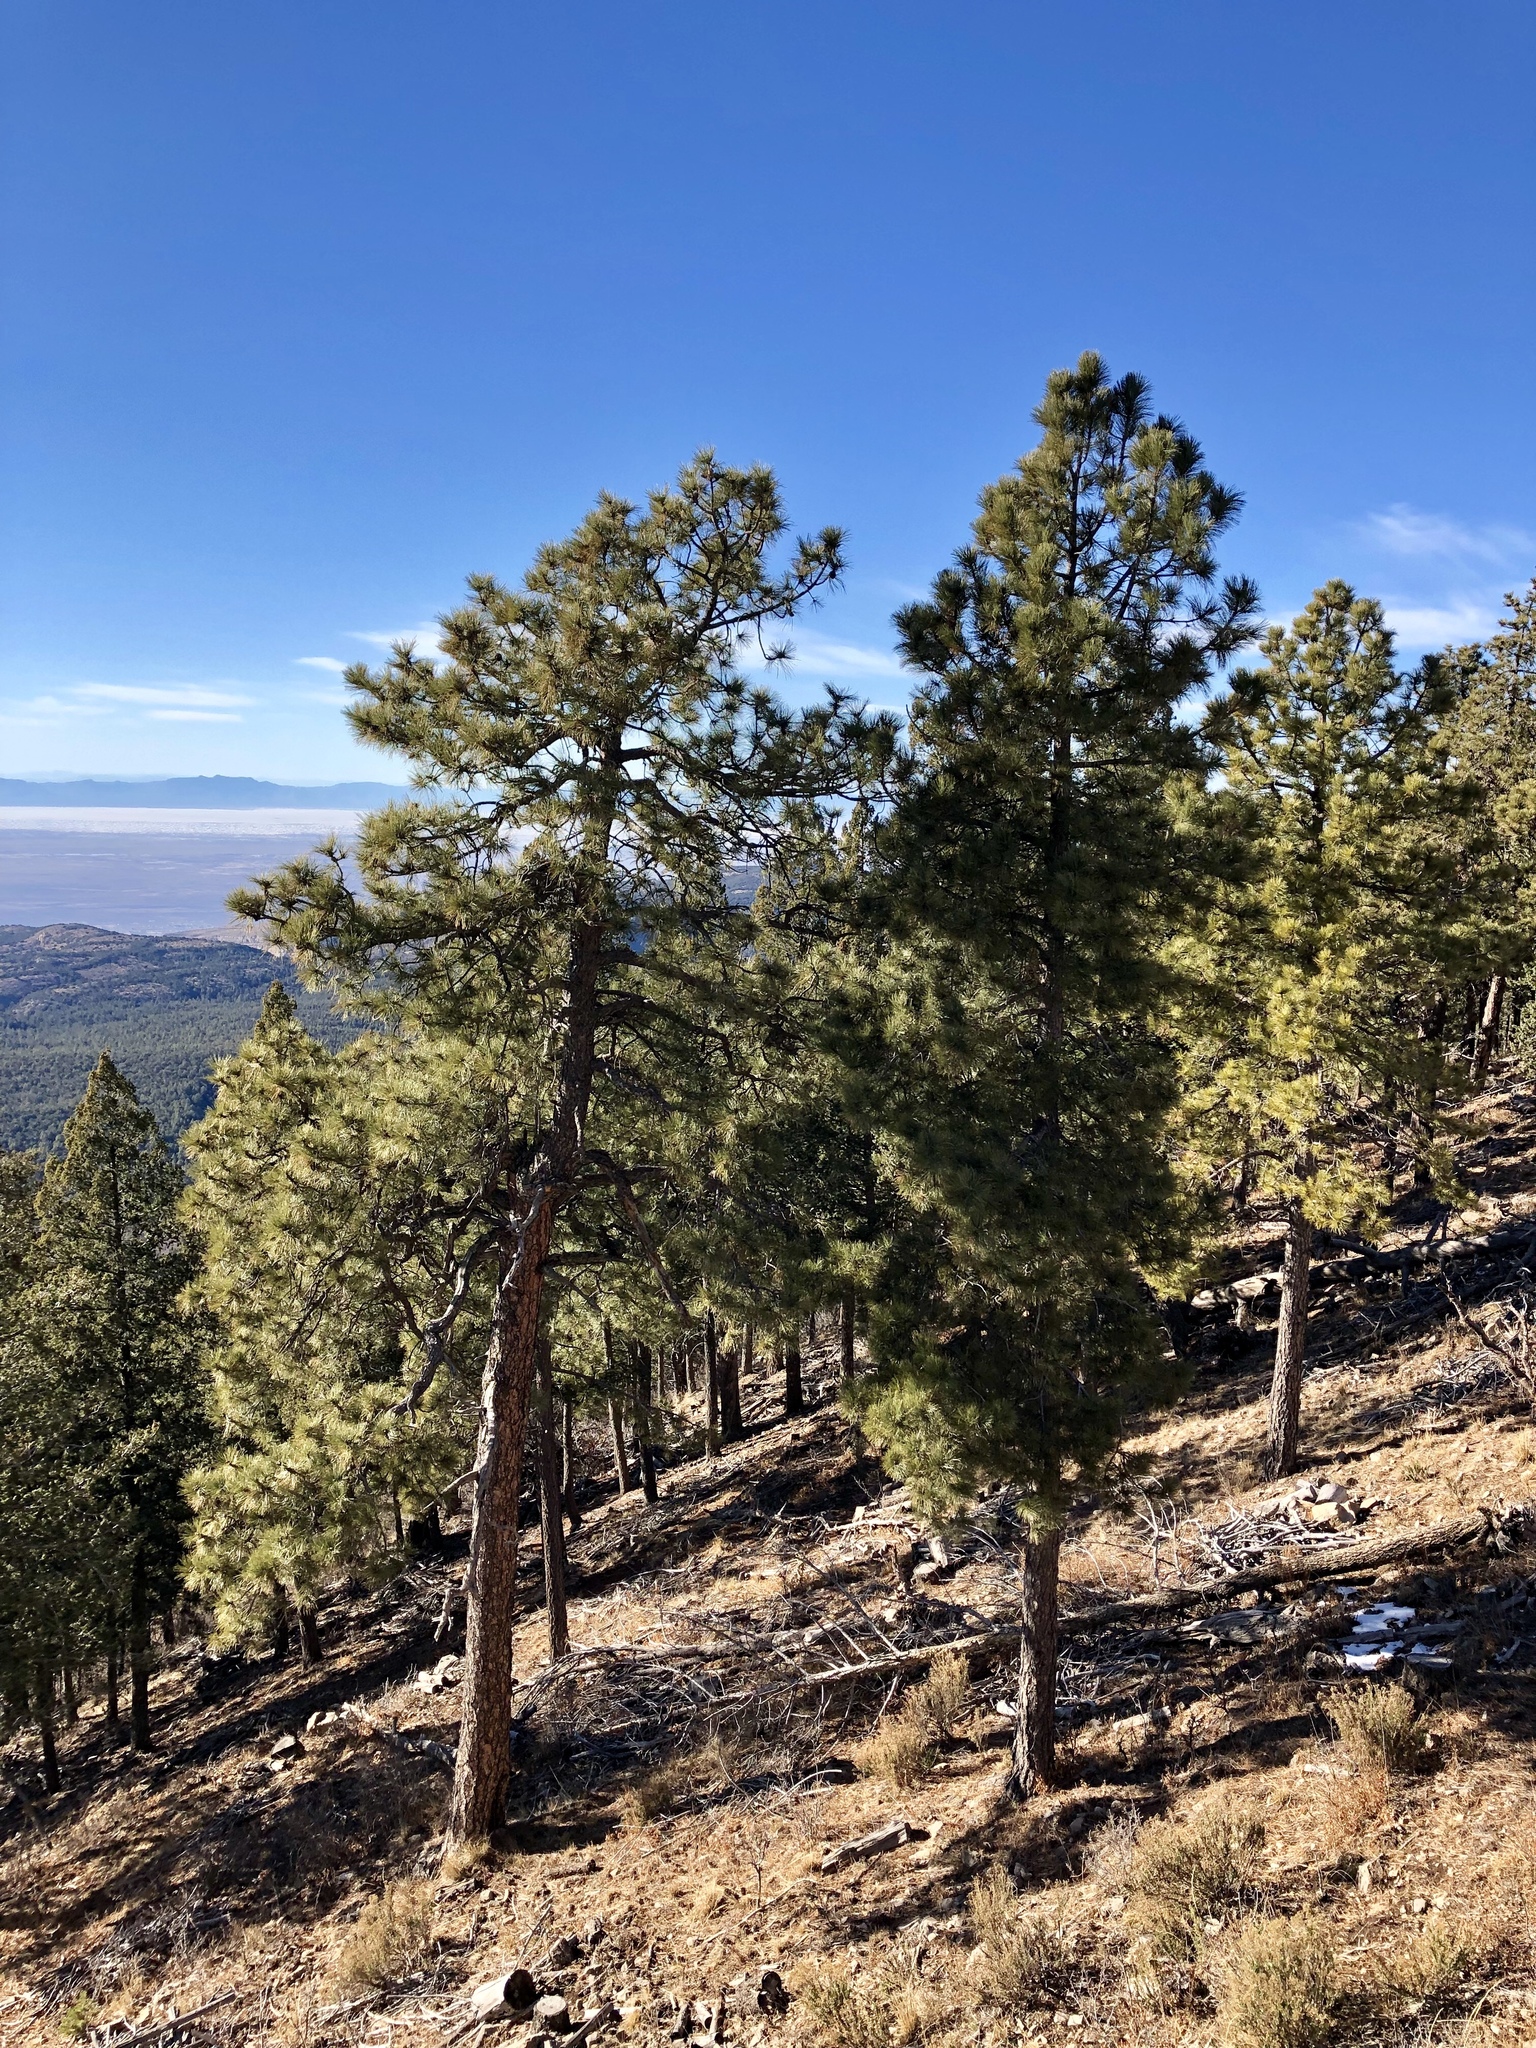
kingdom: Plantae
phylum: Tracheophyta
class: Pinopsida
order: Pinales
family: Pinaceae
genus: Pinus
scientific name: Pinus ponderosa
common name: Western yellow-pine
